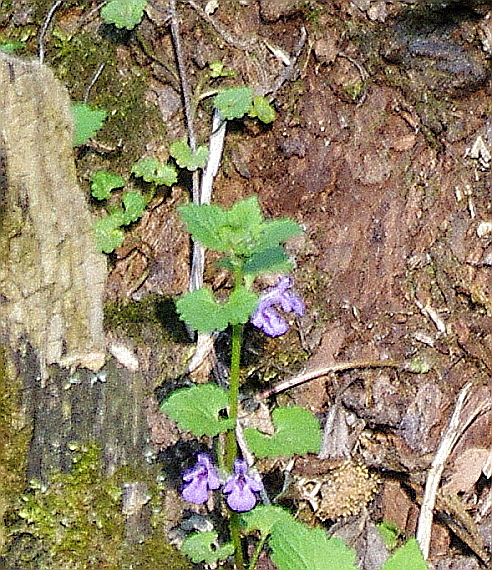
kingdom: Plantae
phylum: Tracheophyta
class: Magnoliopsida
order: Lamiales
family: Lamiaceae
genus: Glechoma
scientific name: Glechoma hederacea
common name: Ground ivy
